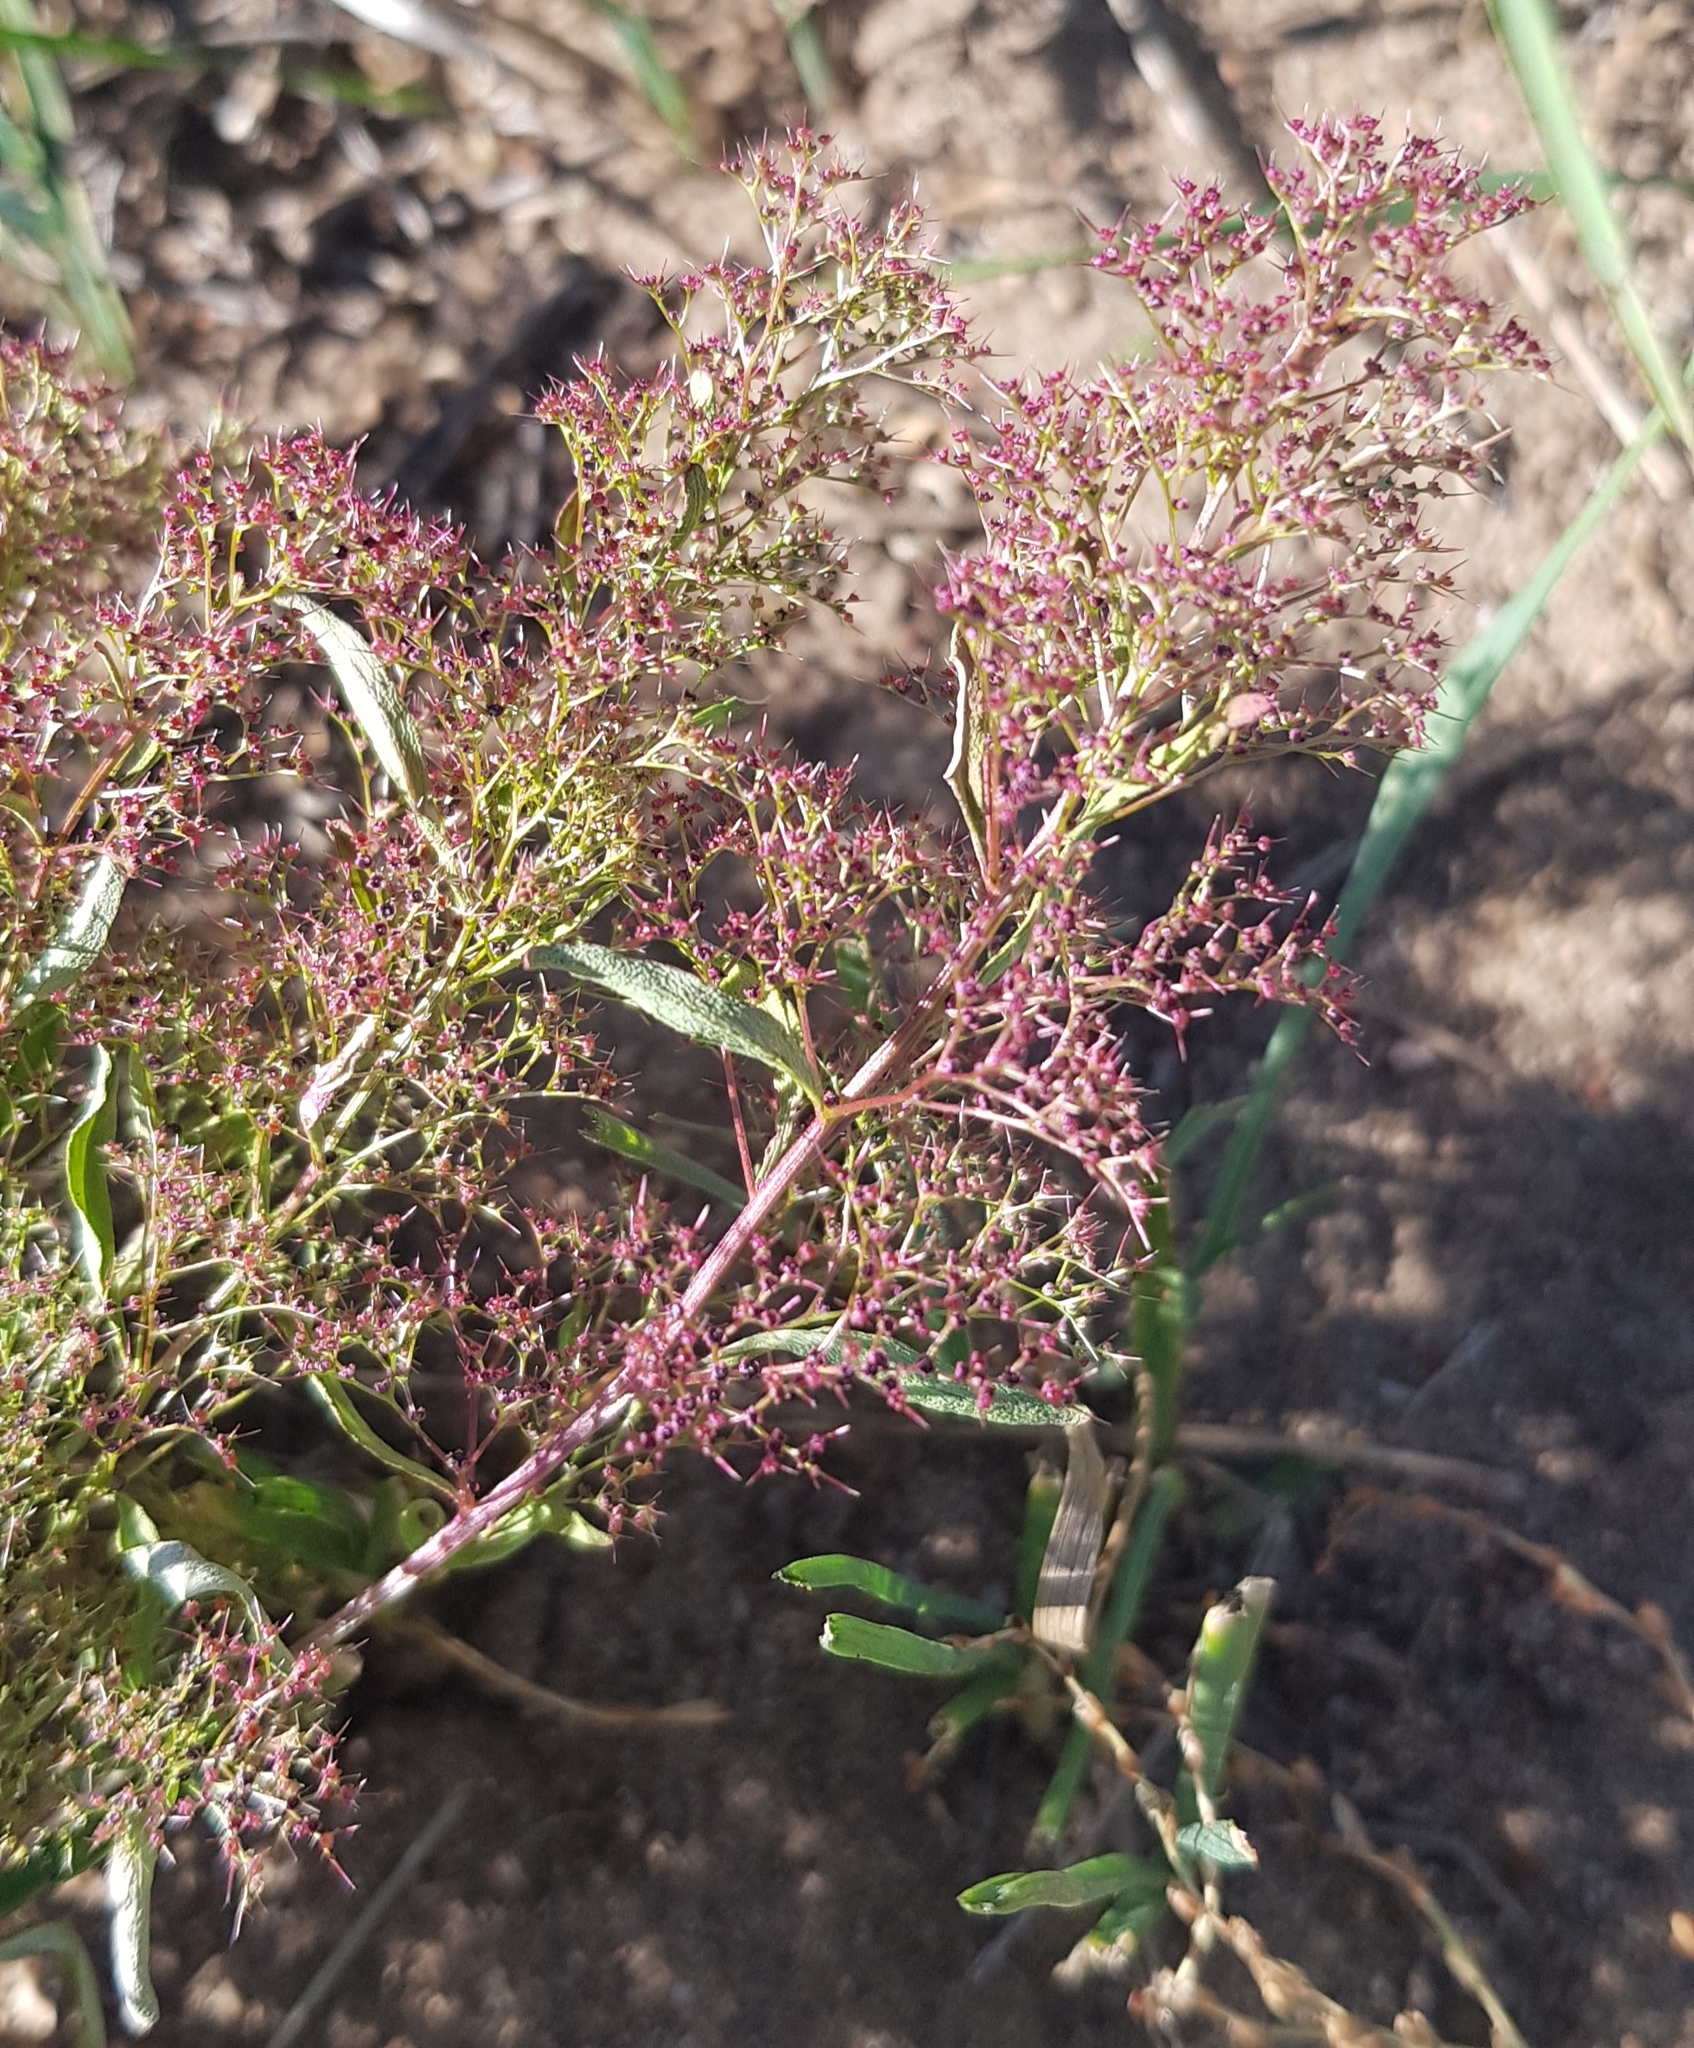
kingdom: Plantae
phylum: Tracheophyta
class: Magnoliopsida
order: Caryophyllales
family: Amaranthaceae
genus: Teloxys
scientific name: Teloxys aristata
